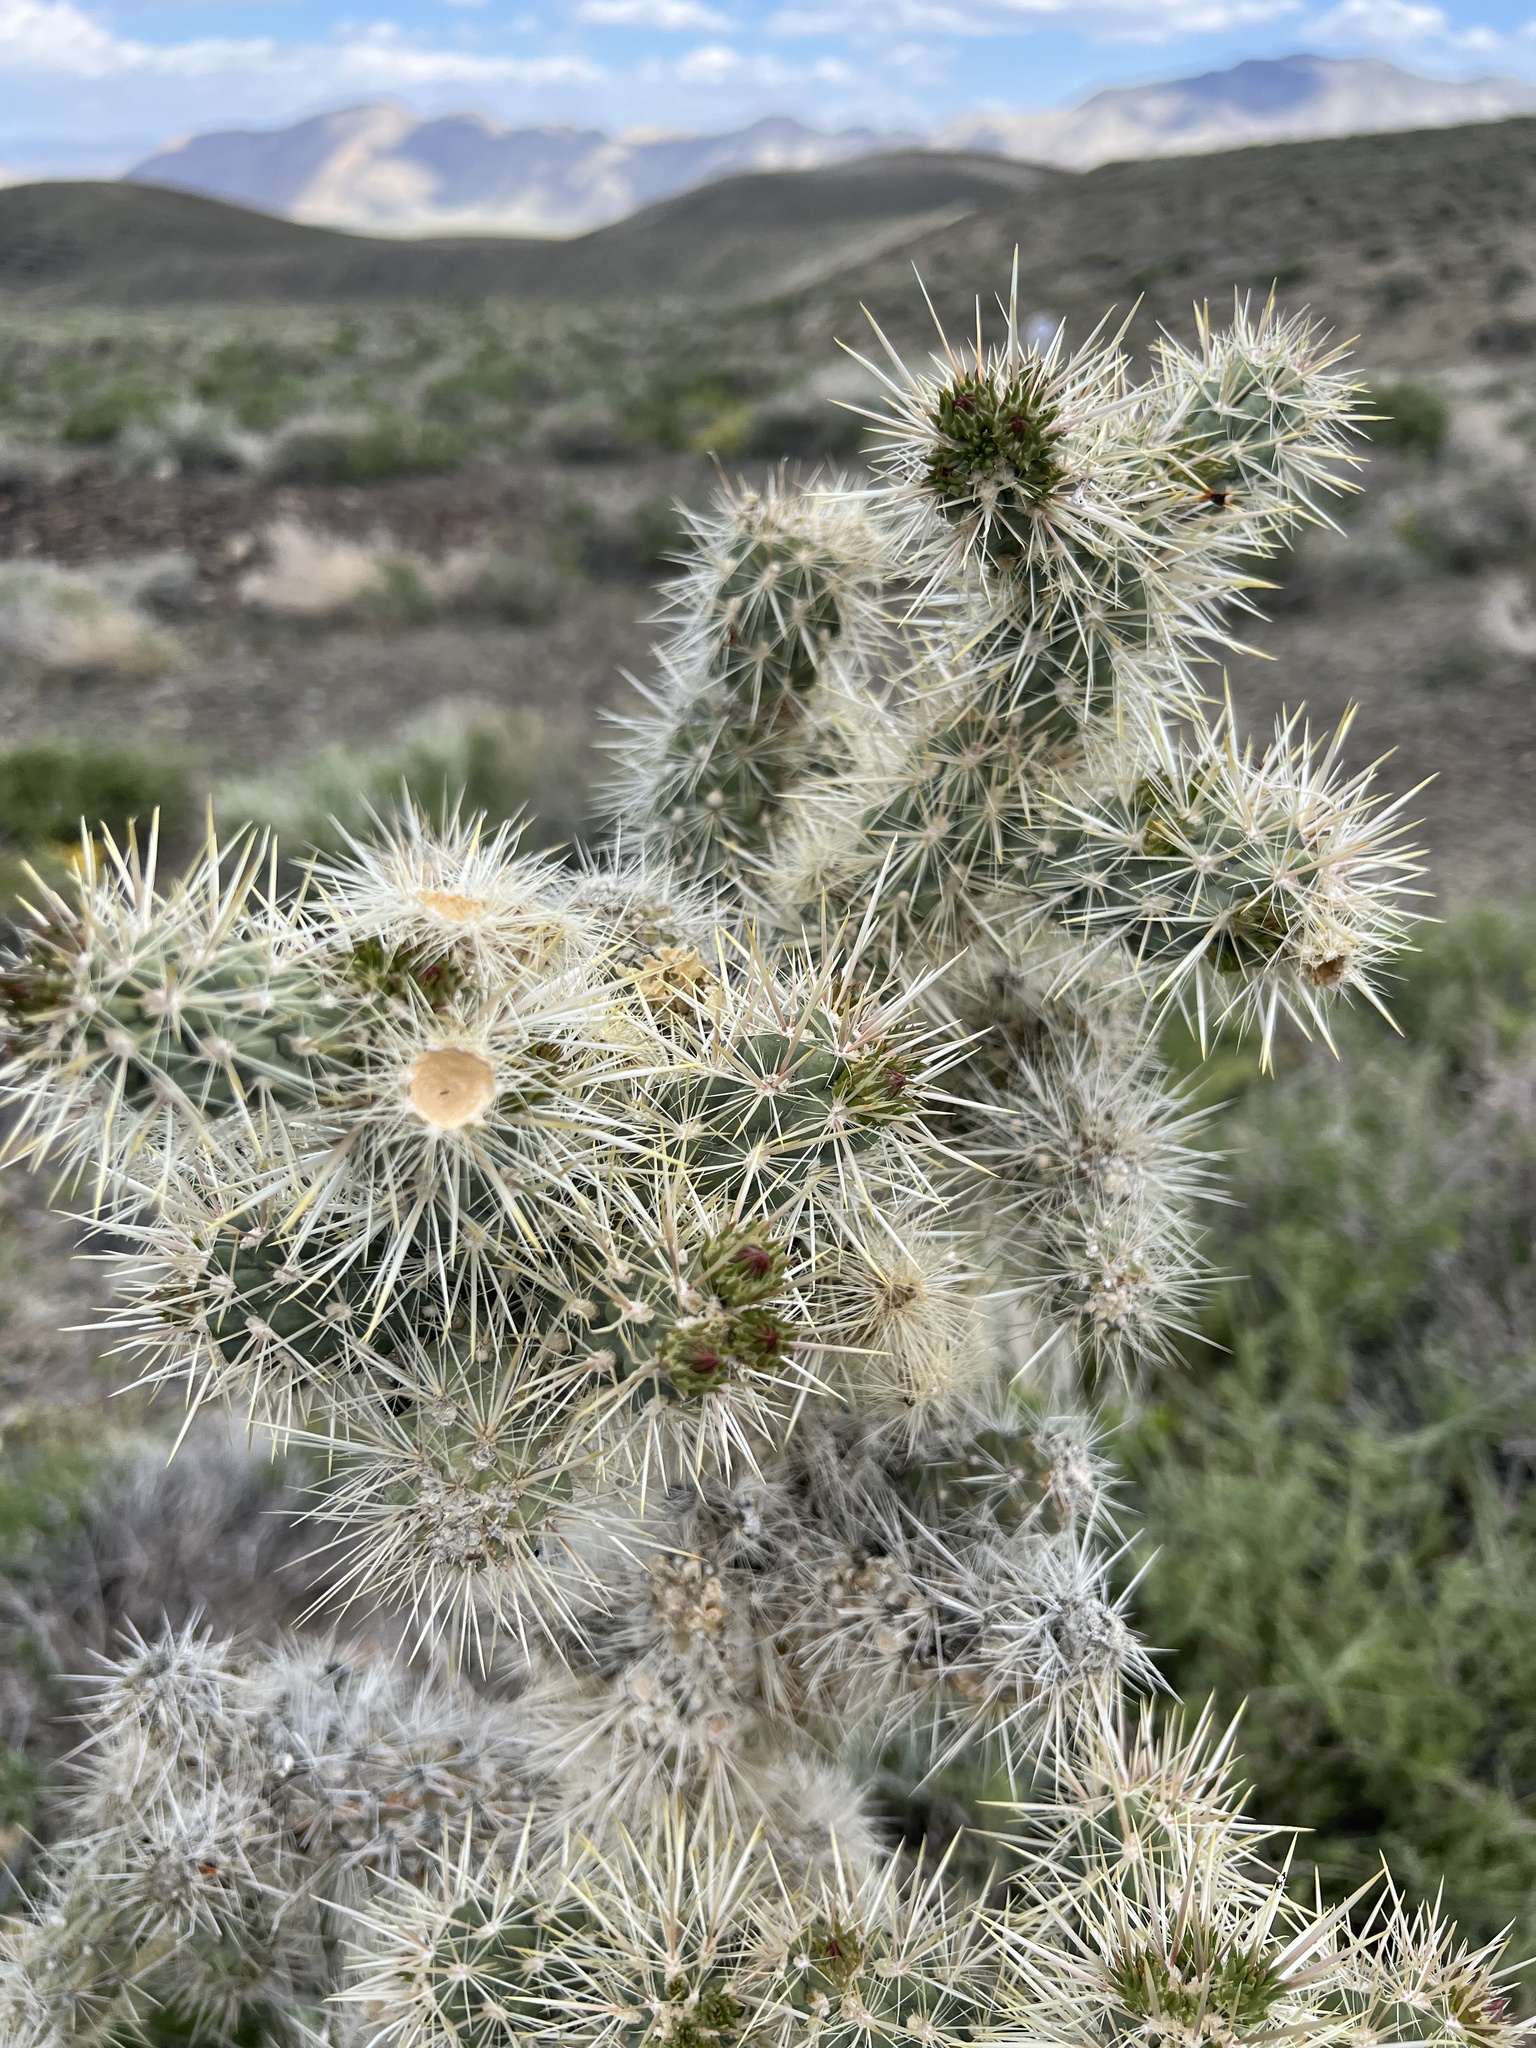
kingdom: Plantae
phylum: Tracheophyta
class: Magnoliopsida
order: Caryophyllales
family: Cactaceae
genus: Cylindropuntia
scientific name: Cylindropuntia echinocarpa
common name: Ground cholla
